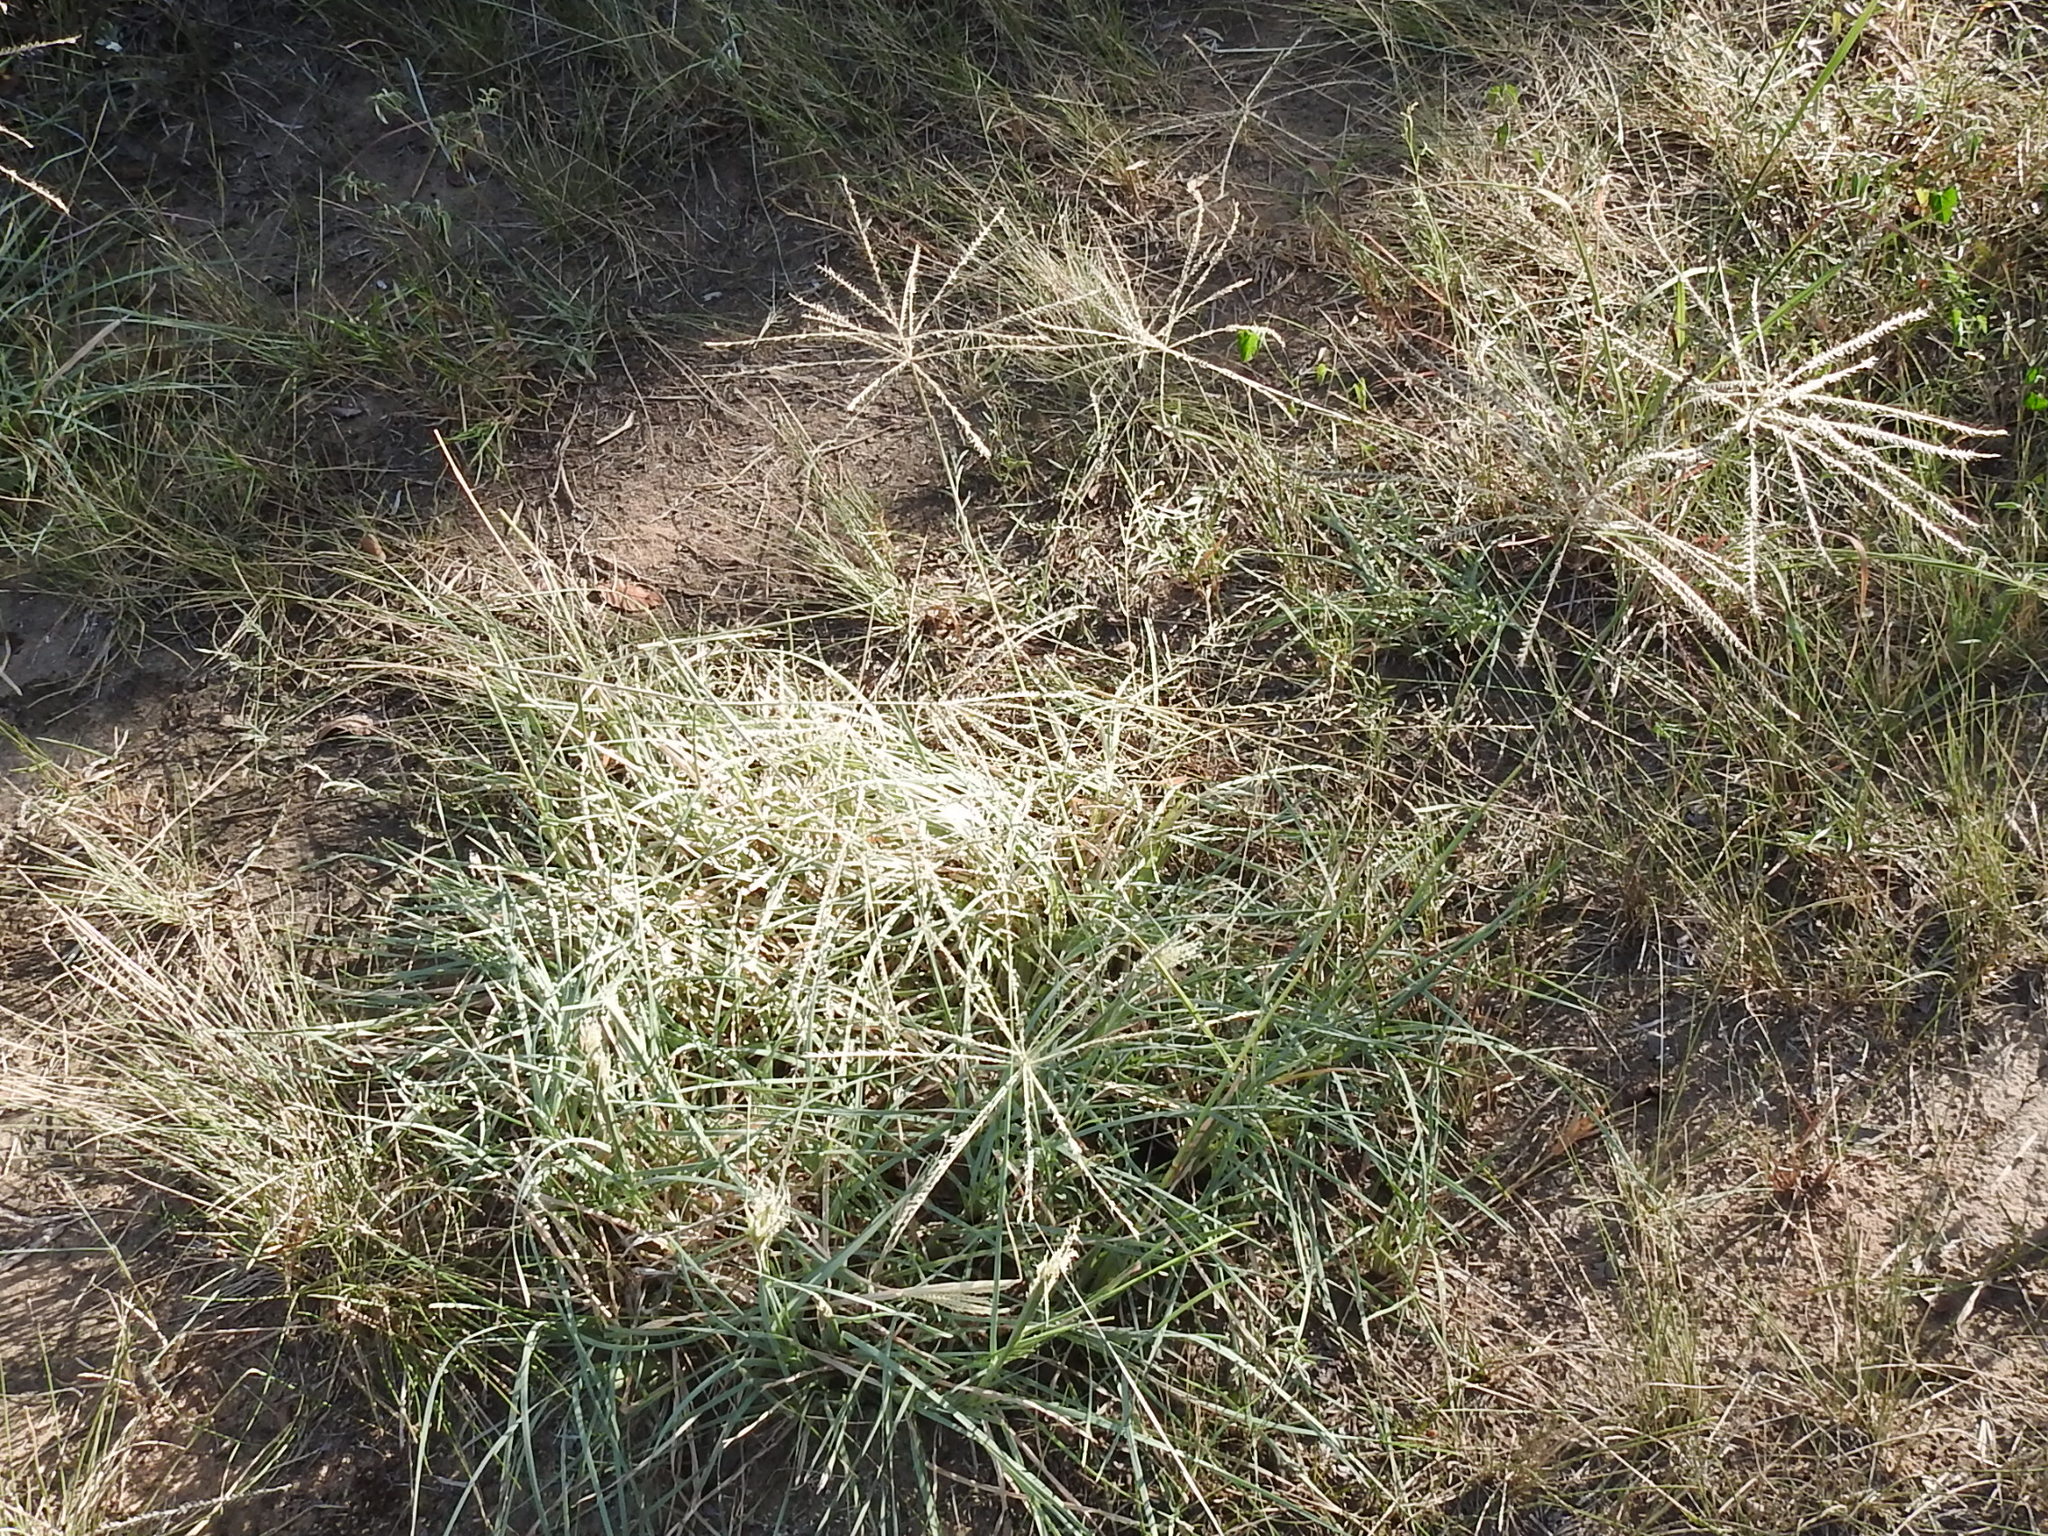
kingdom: Plantae
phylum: Tracheophyta
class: Liliopsida
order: Poales
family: Poaceae
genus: Chloris
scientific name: Chloris verticillata
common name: Tumble windmill grass
